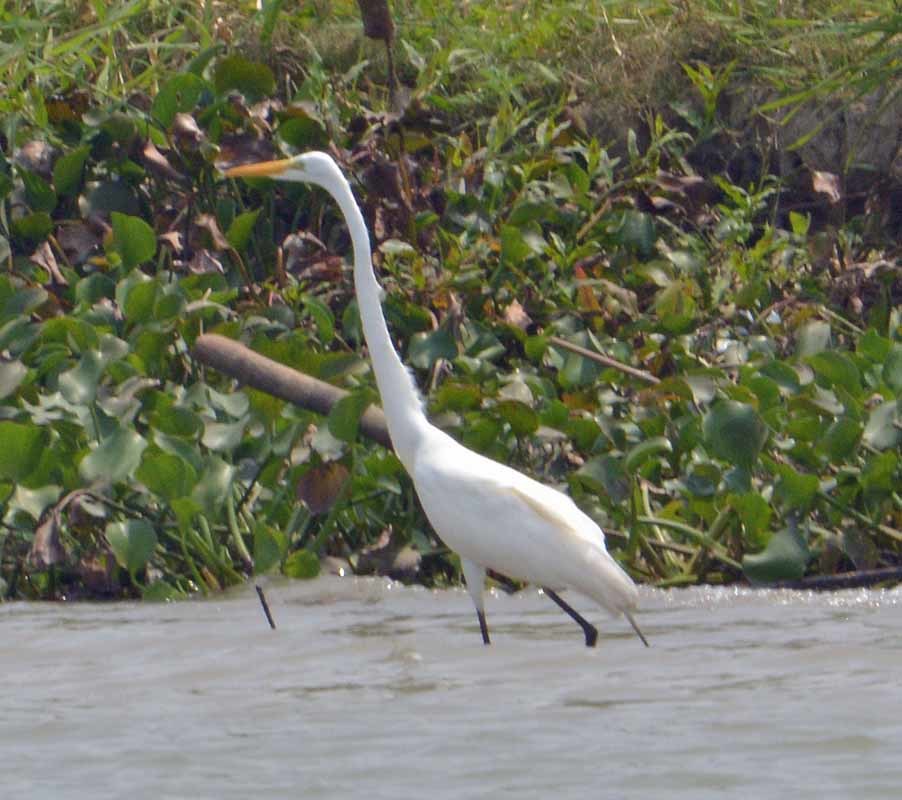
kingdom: Animalia
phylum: Chordata
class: Aves
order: Pelecaniformes
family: Ardeidae
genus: Ardea
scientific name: Ardea alba
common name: Great egret
